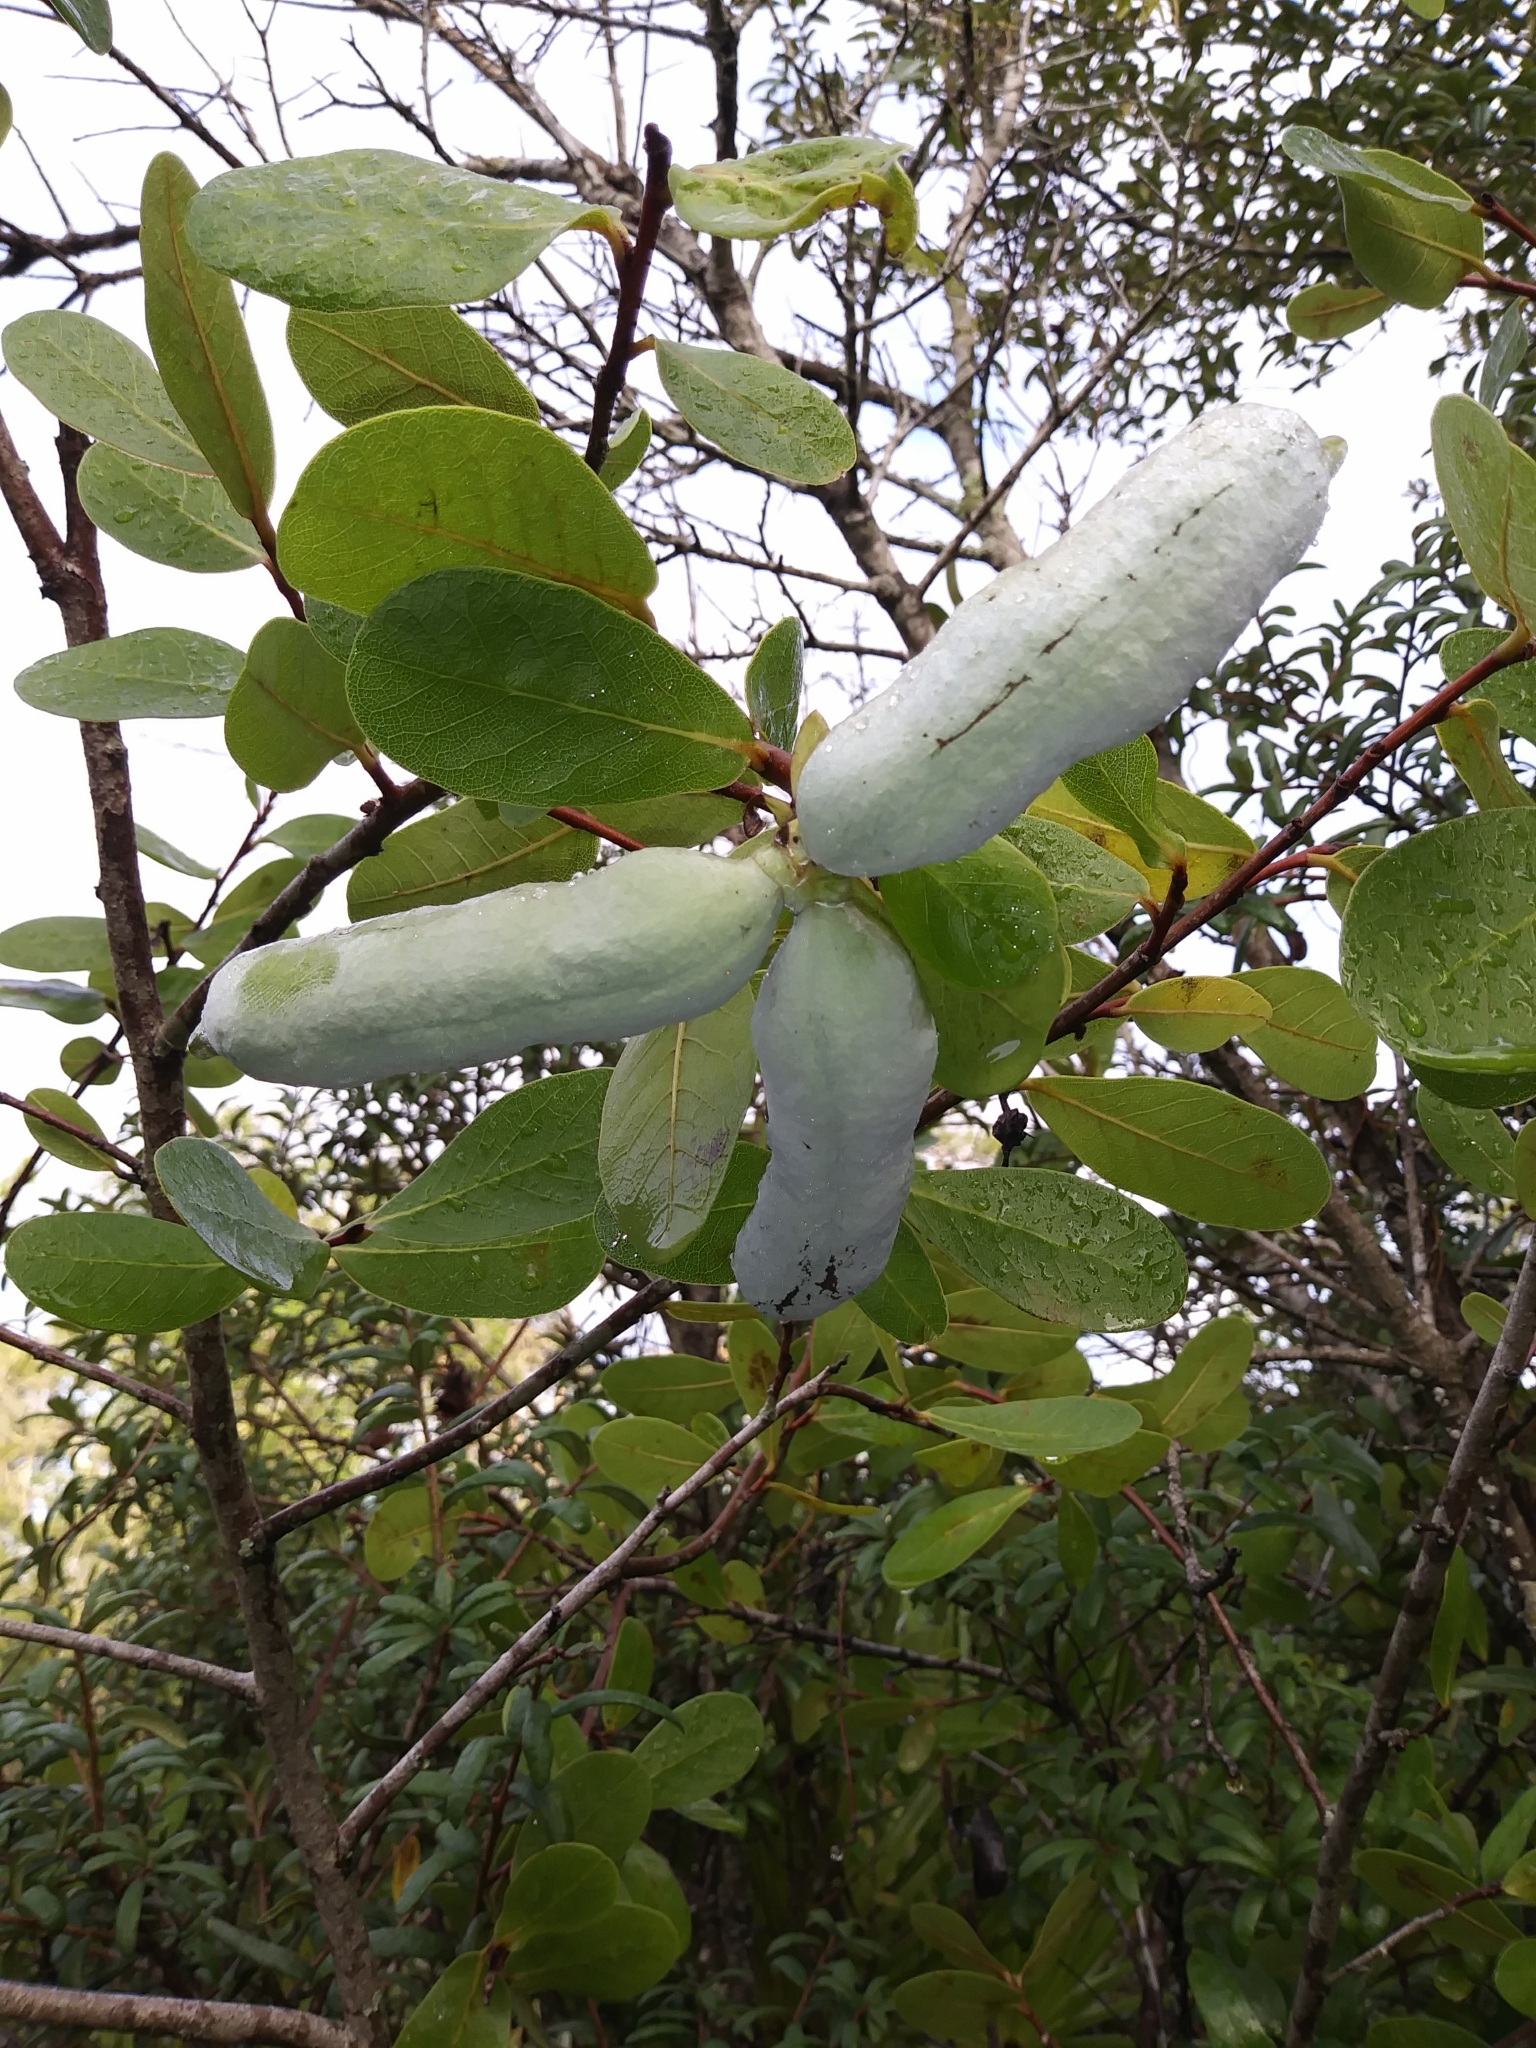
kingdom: Plantae
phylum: Tracheophyta
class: Magnoliopsida
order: Magnoliales
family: Annonaceae
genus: Asimina
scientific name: Asimina obovata
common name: Flag pawpaw
